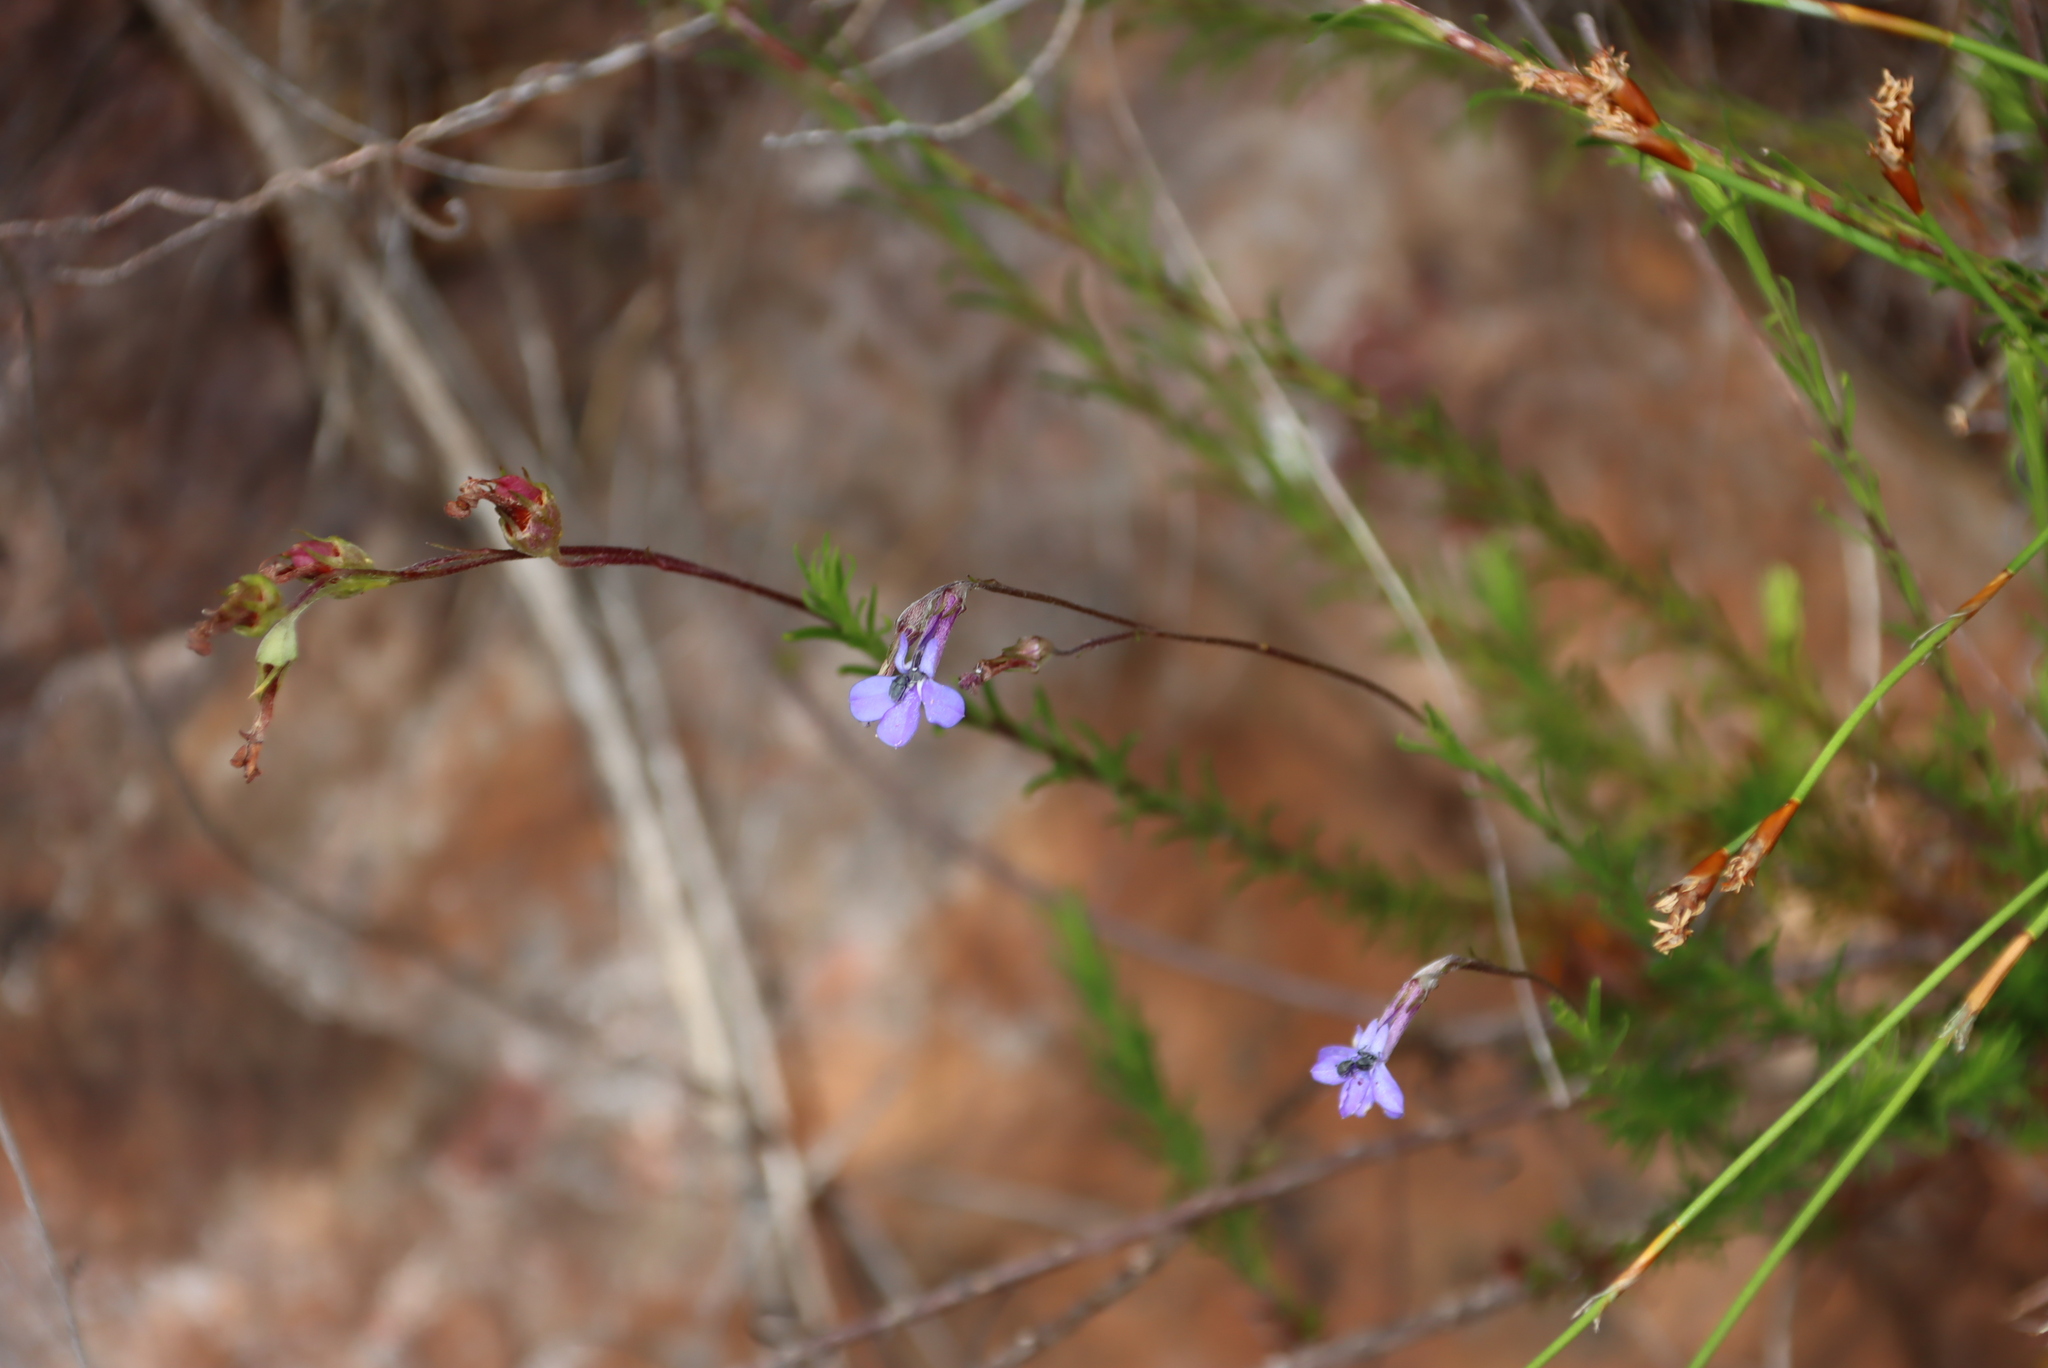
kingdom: Plantae
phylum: Tracheophyta
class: Magnoliopsida
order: Asterales
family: Campanulaceae
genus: Lobelia
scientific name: Lobelia pinifolia
